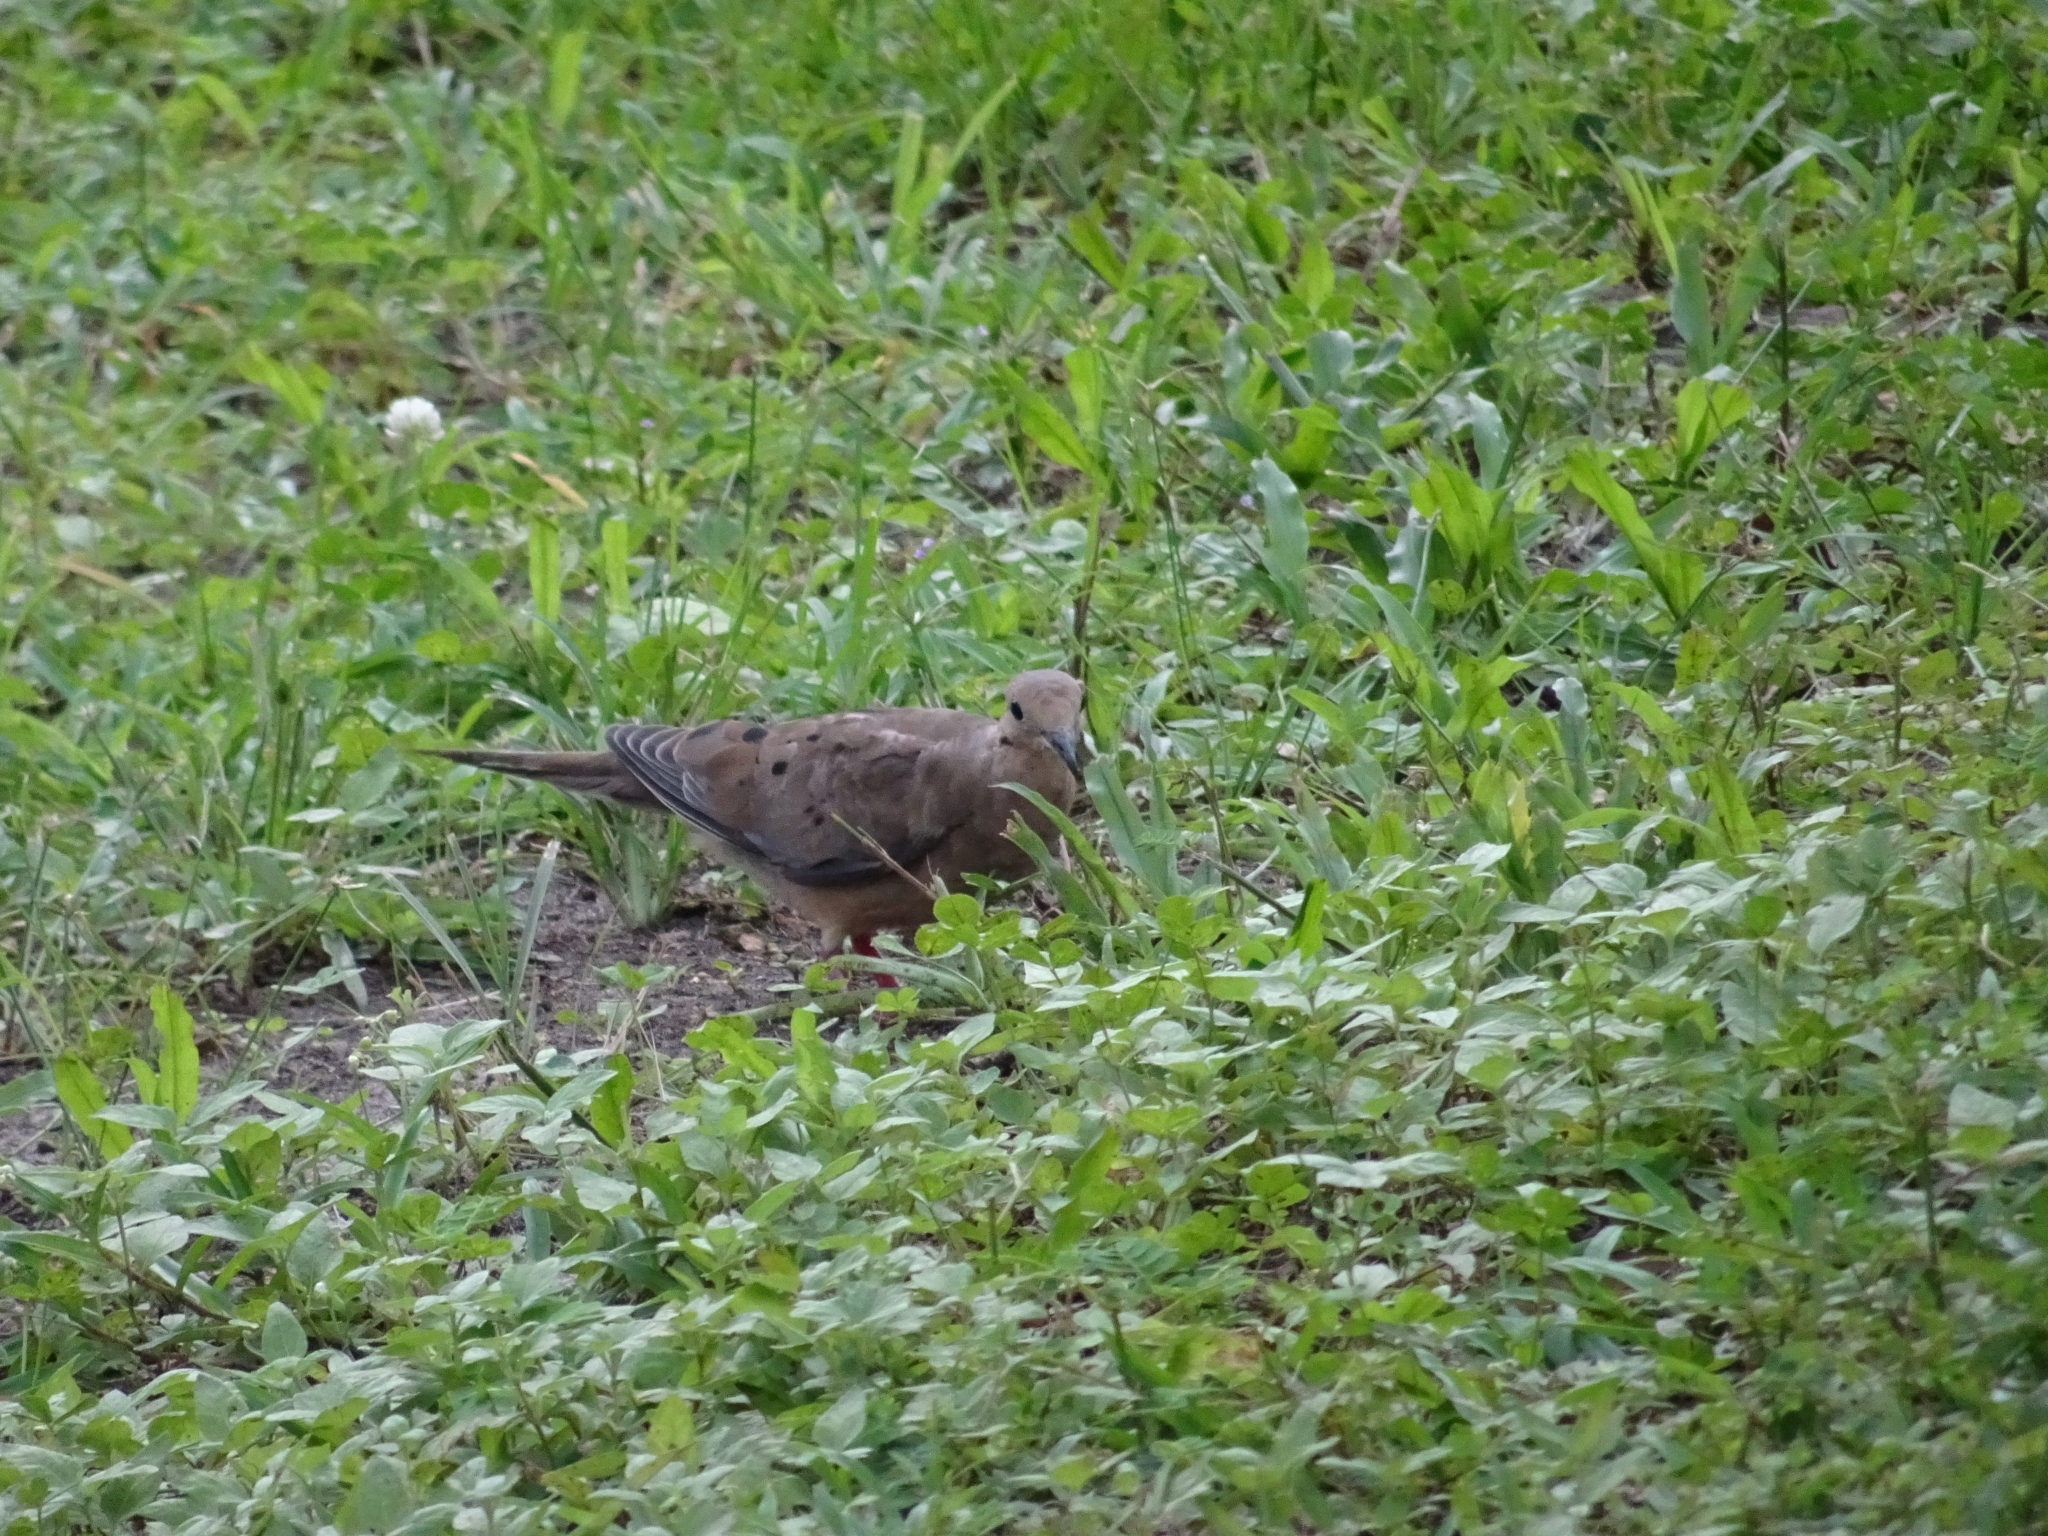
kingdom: Animalia
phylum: Chordata
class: Aves
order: Columbiformes
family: Columbidae
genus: Zenaida
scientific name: Zenaida macroura
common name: Mourning dove
